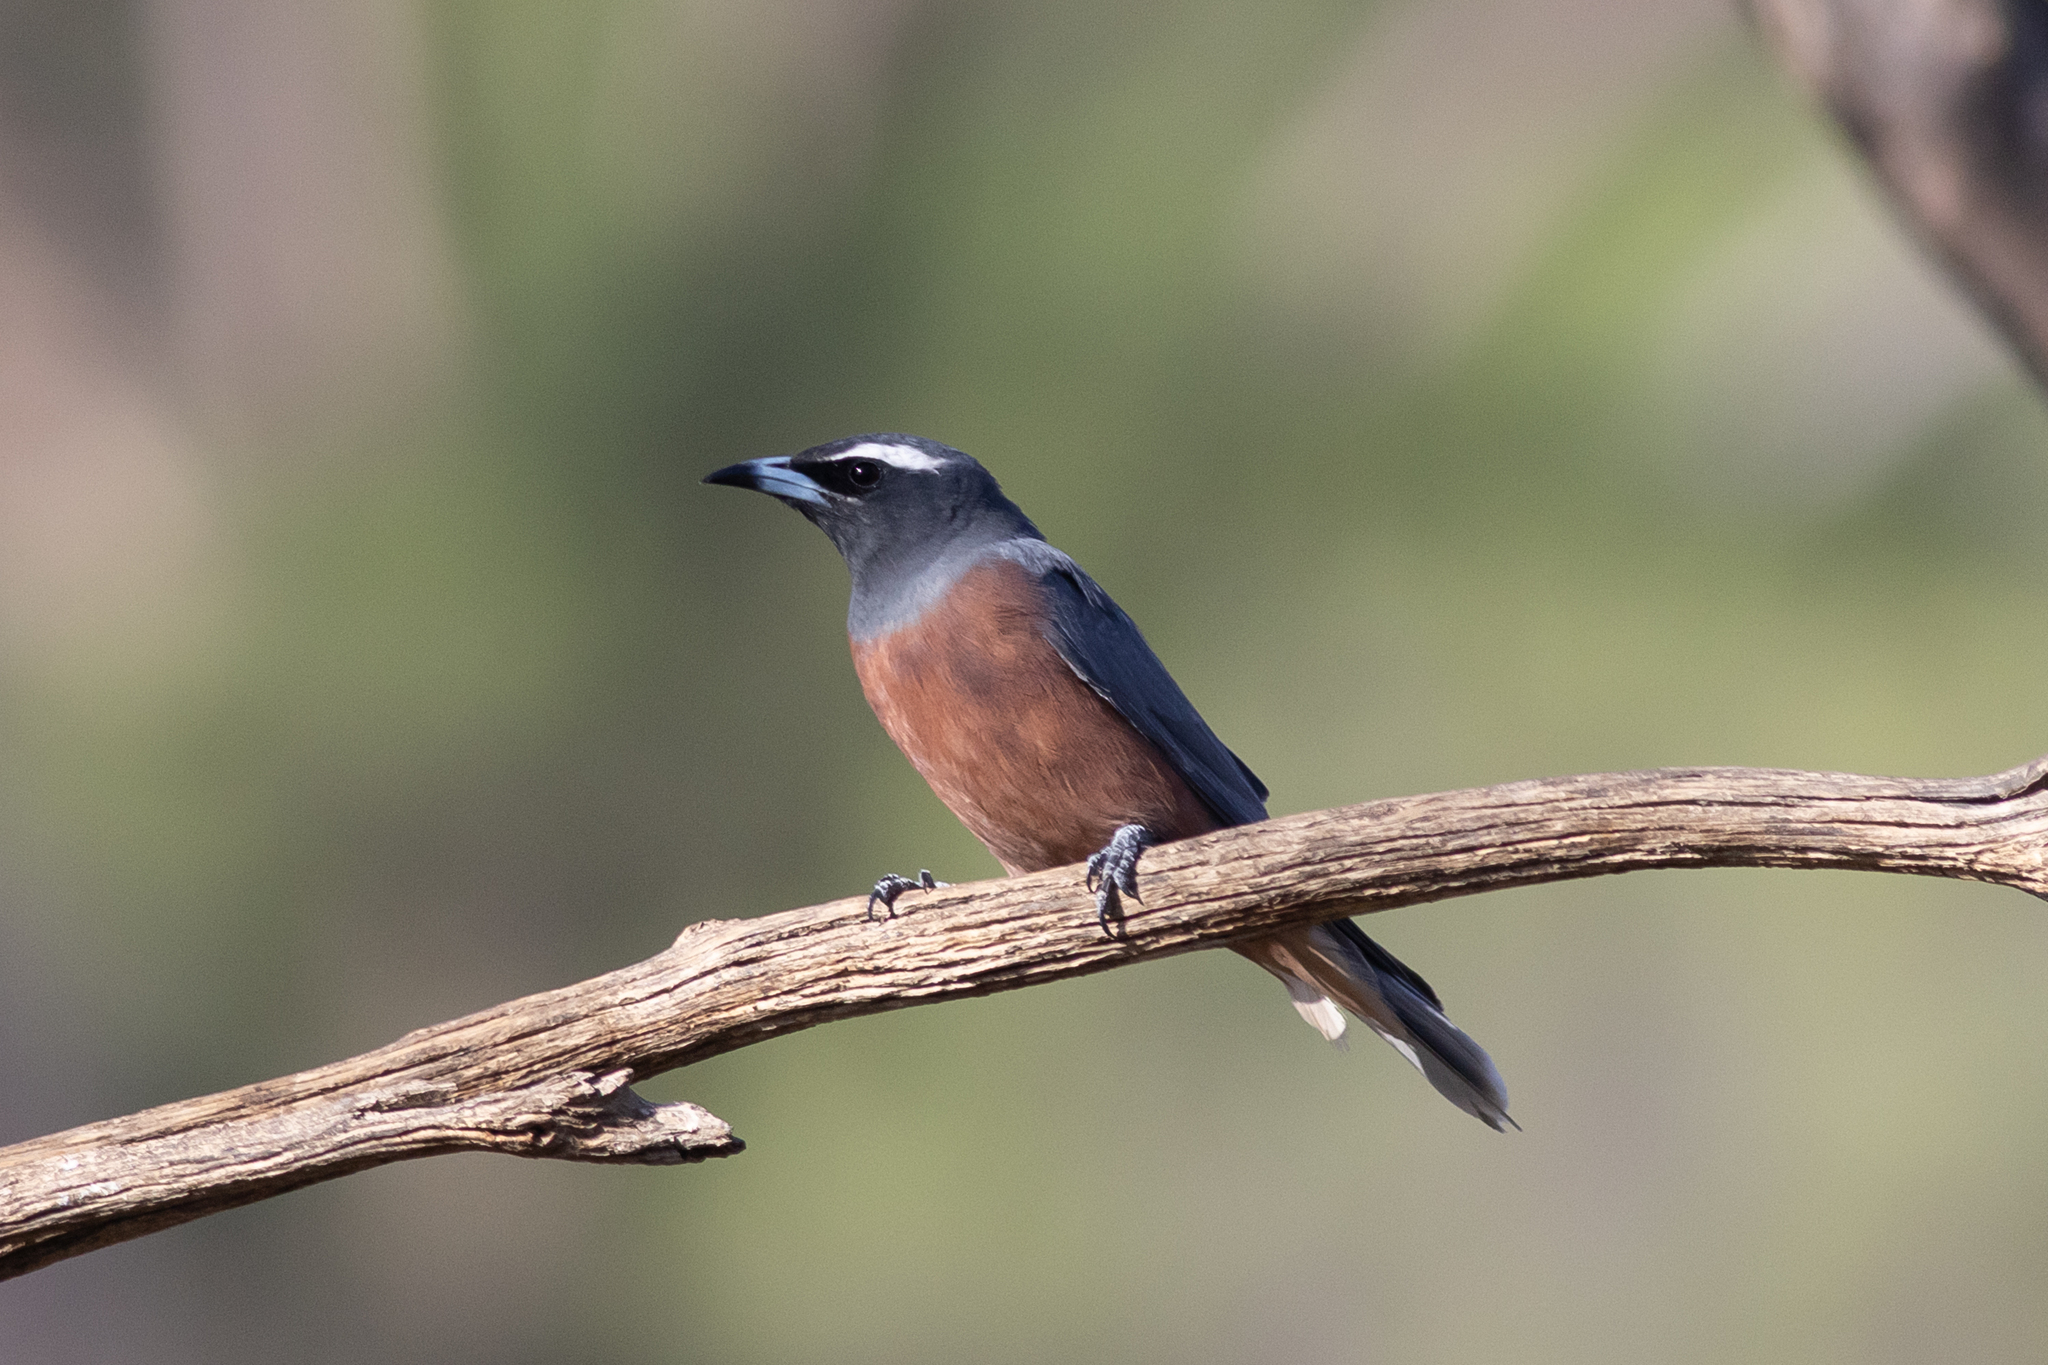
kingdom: Animalia
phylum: Chordata
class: Aves
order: Passeriformes
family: Artamidae
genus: Artamus
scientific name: Artamus superciliosus
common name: White-browed woodswallow
